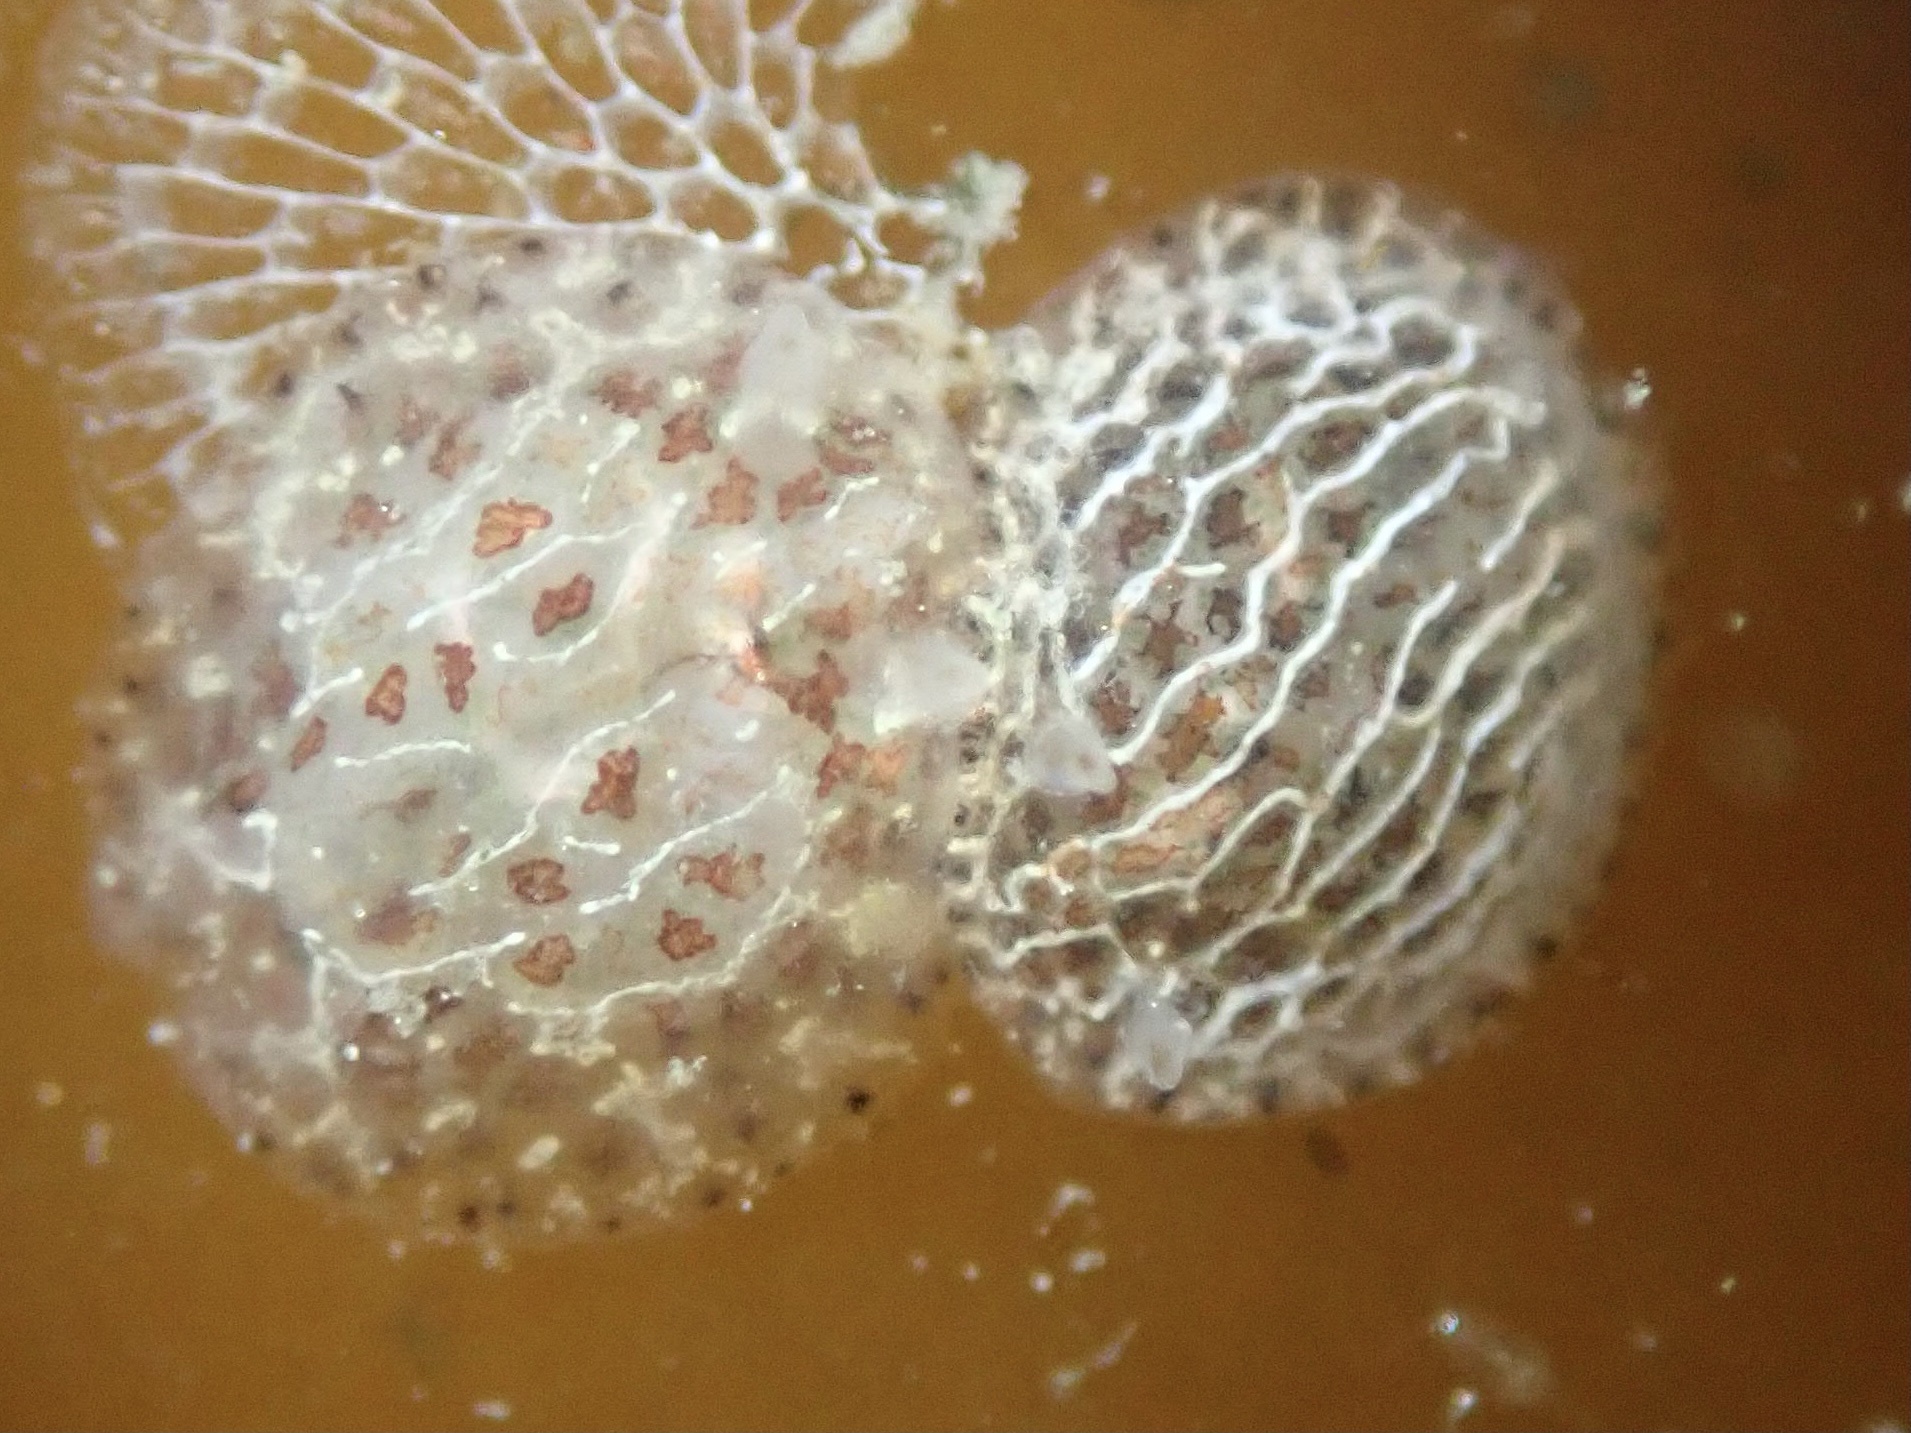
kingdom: Animalia
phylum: Mollusca
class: Gastropoda
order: Nudibranchia
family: Corambidae
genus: Corambe
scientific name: Corambe pacifica
